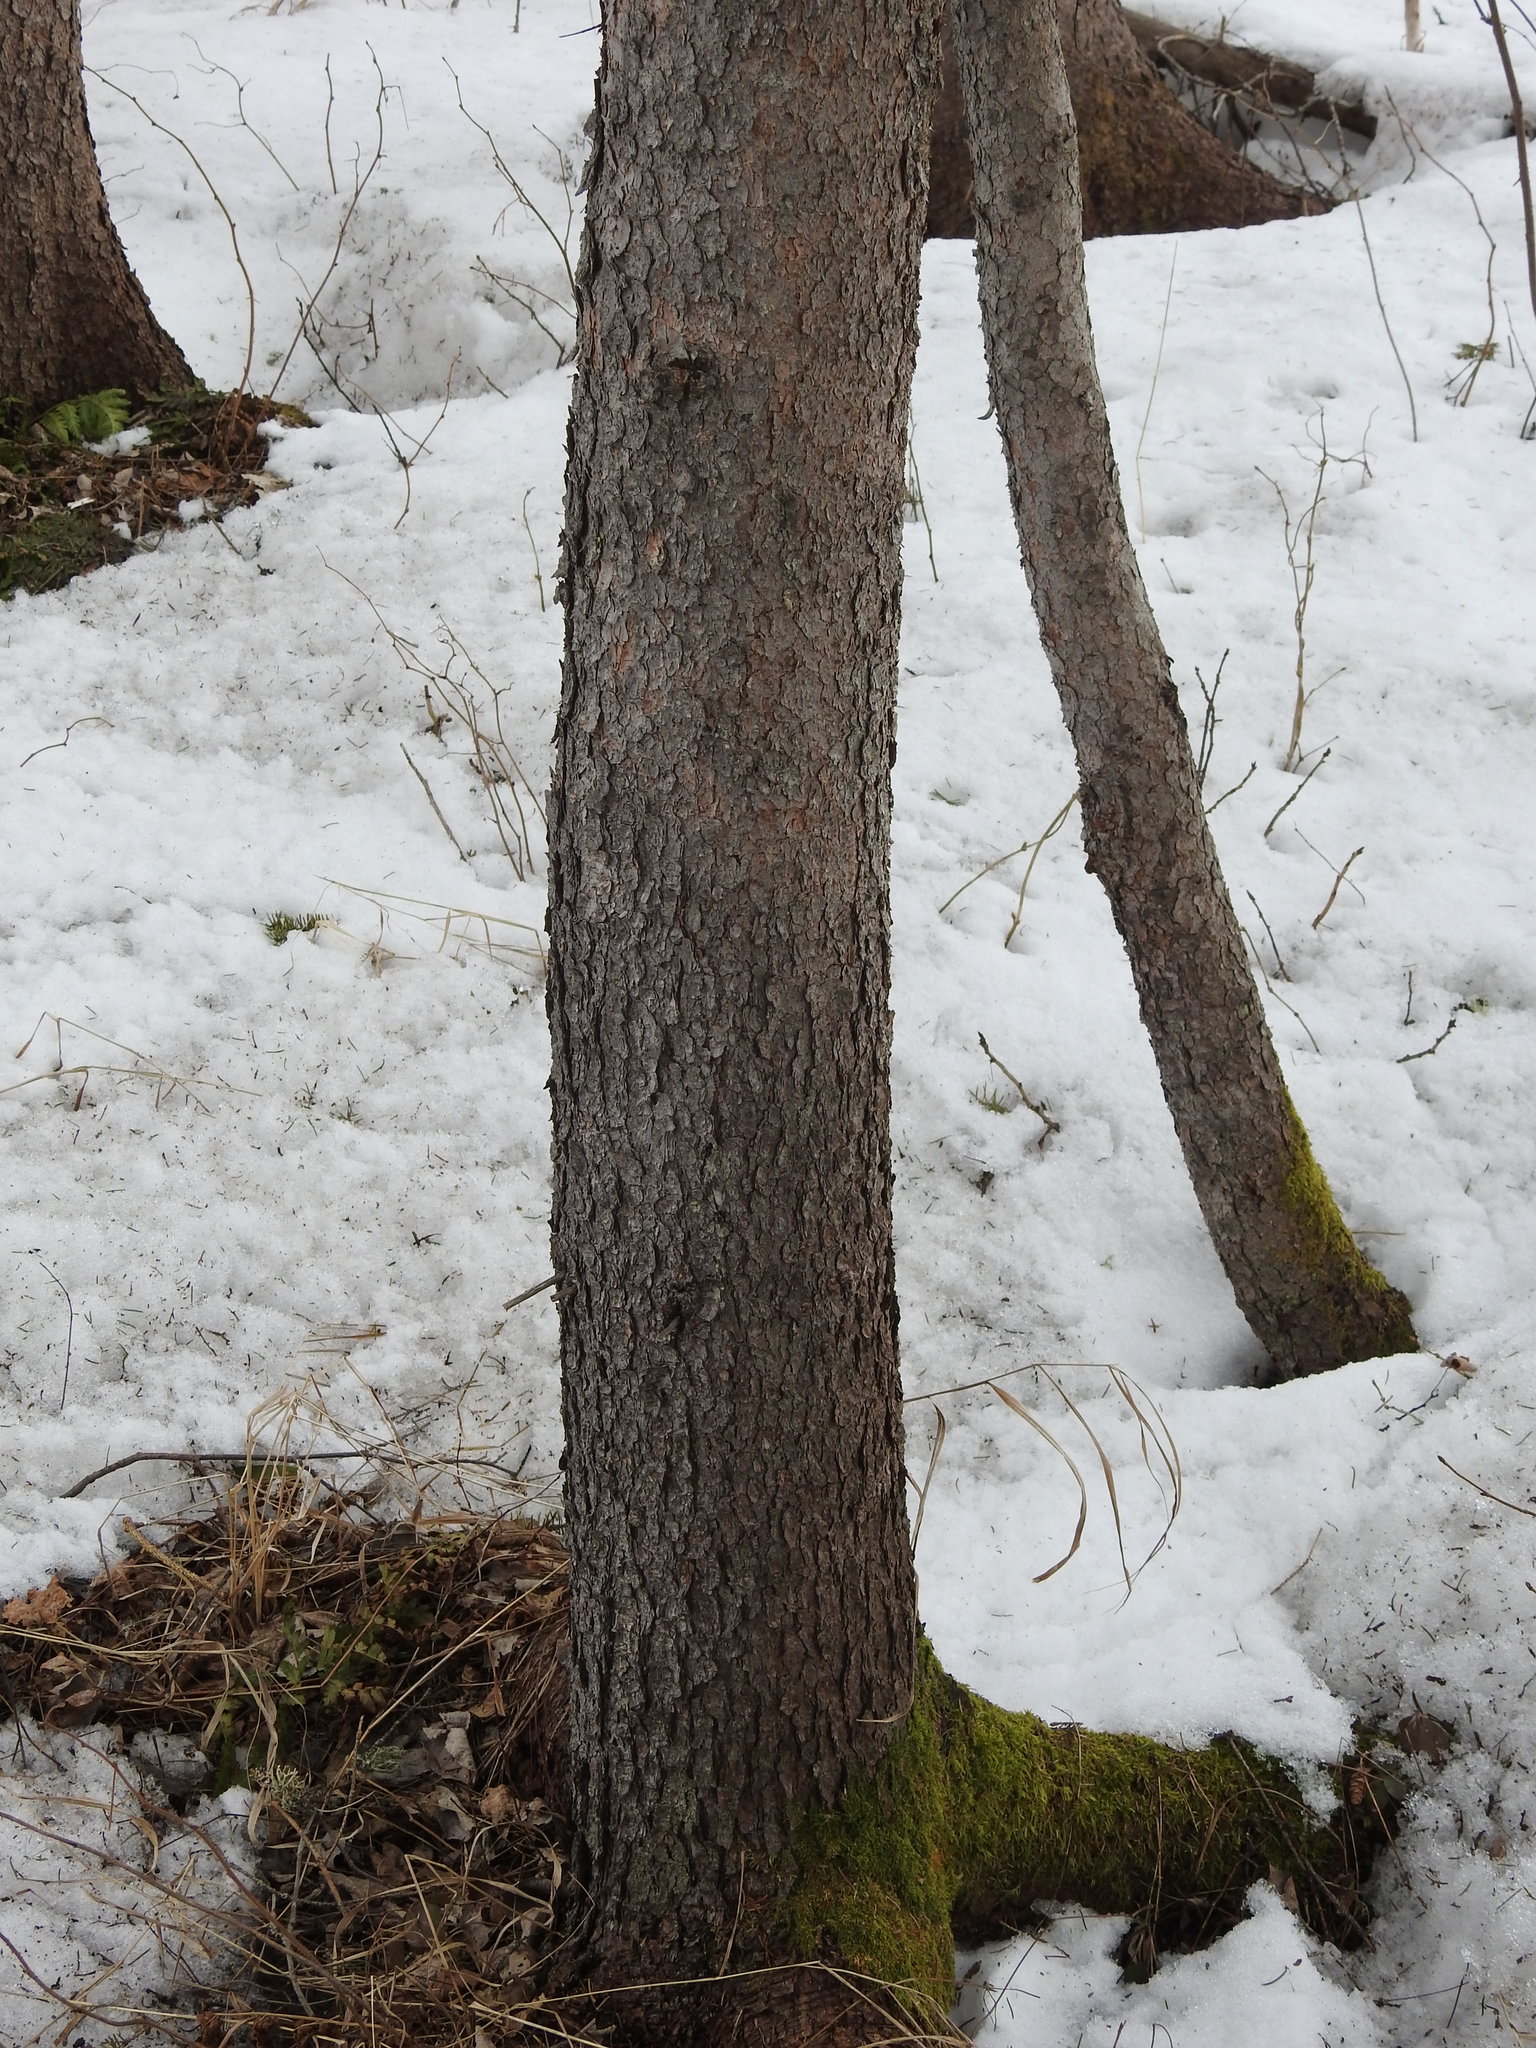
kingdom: Plantae
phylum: Tracheophyta
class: Pinopsida
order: Pinales
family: Pinaceae
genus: Picea
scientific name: Picea glauca
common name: White spruce
